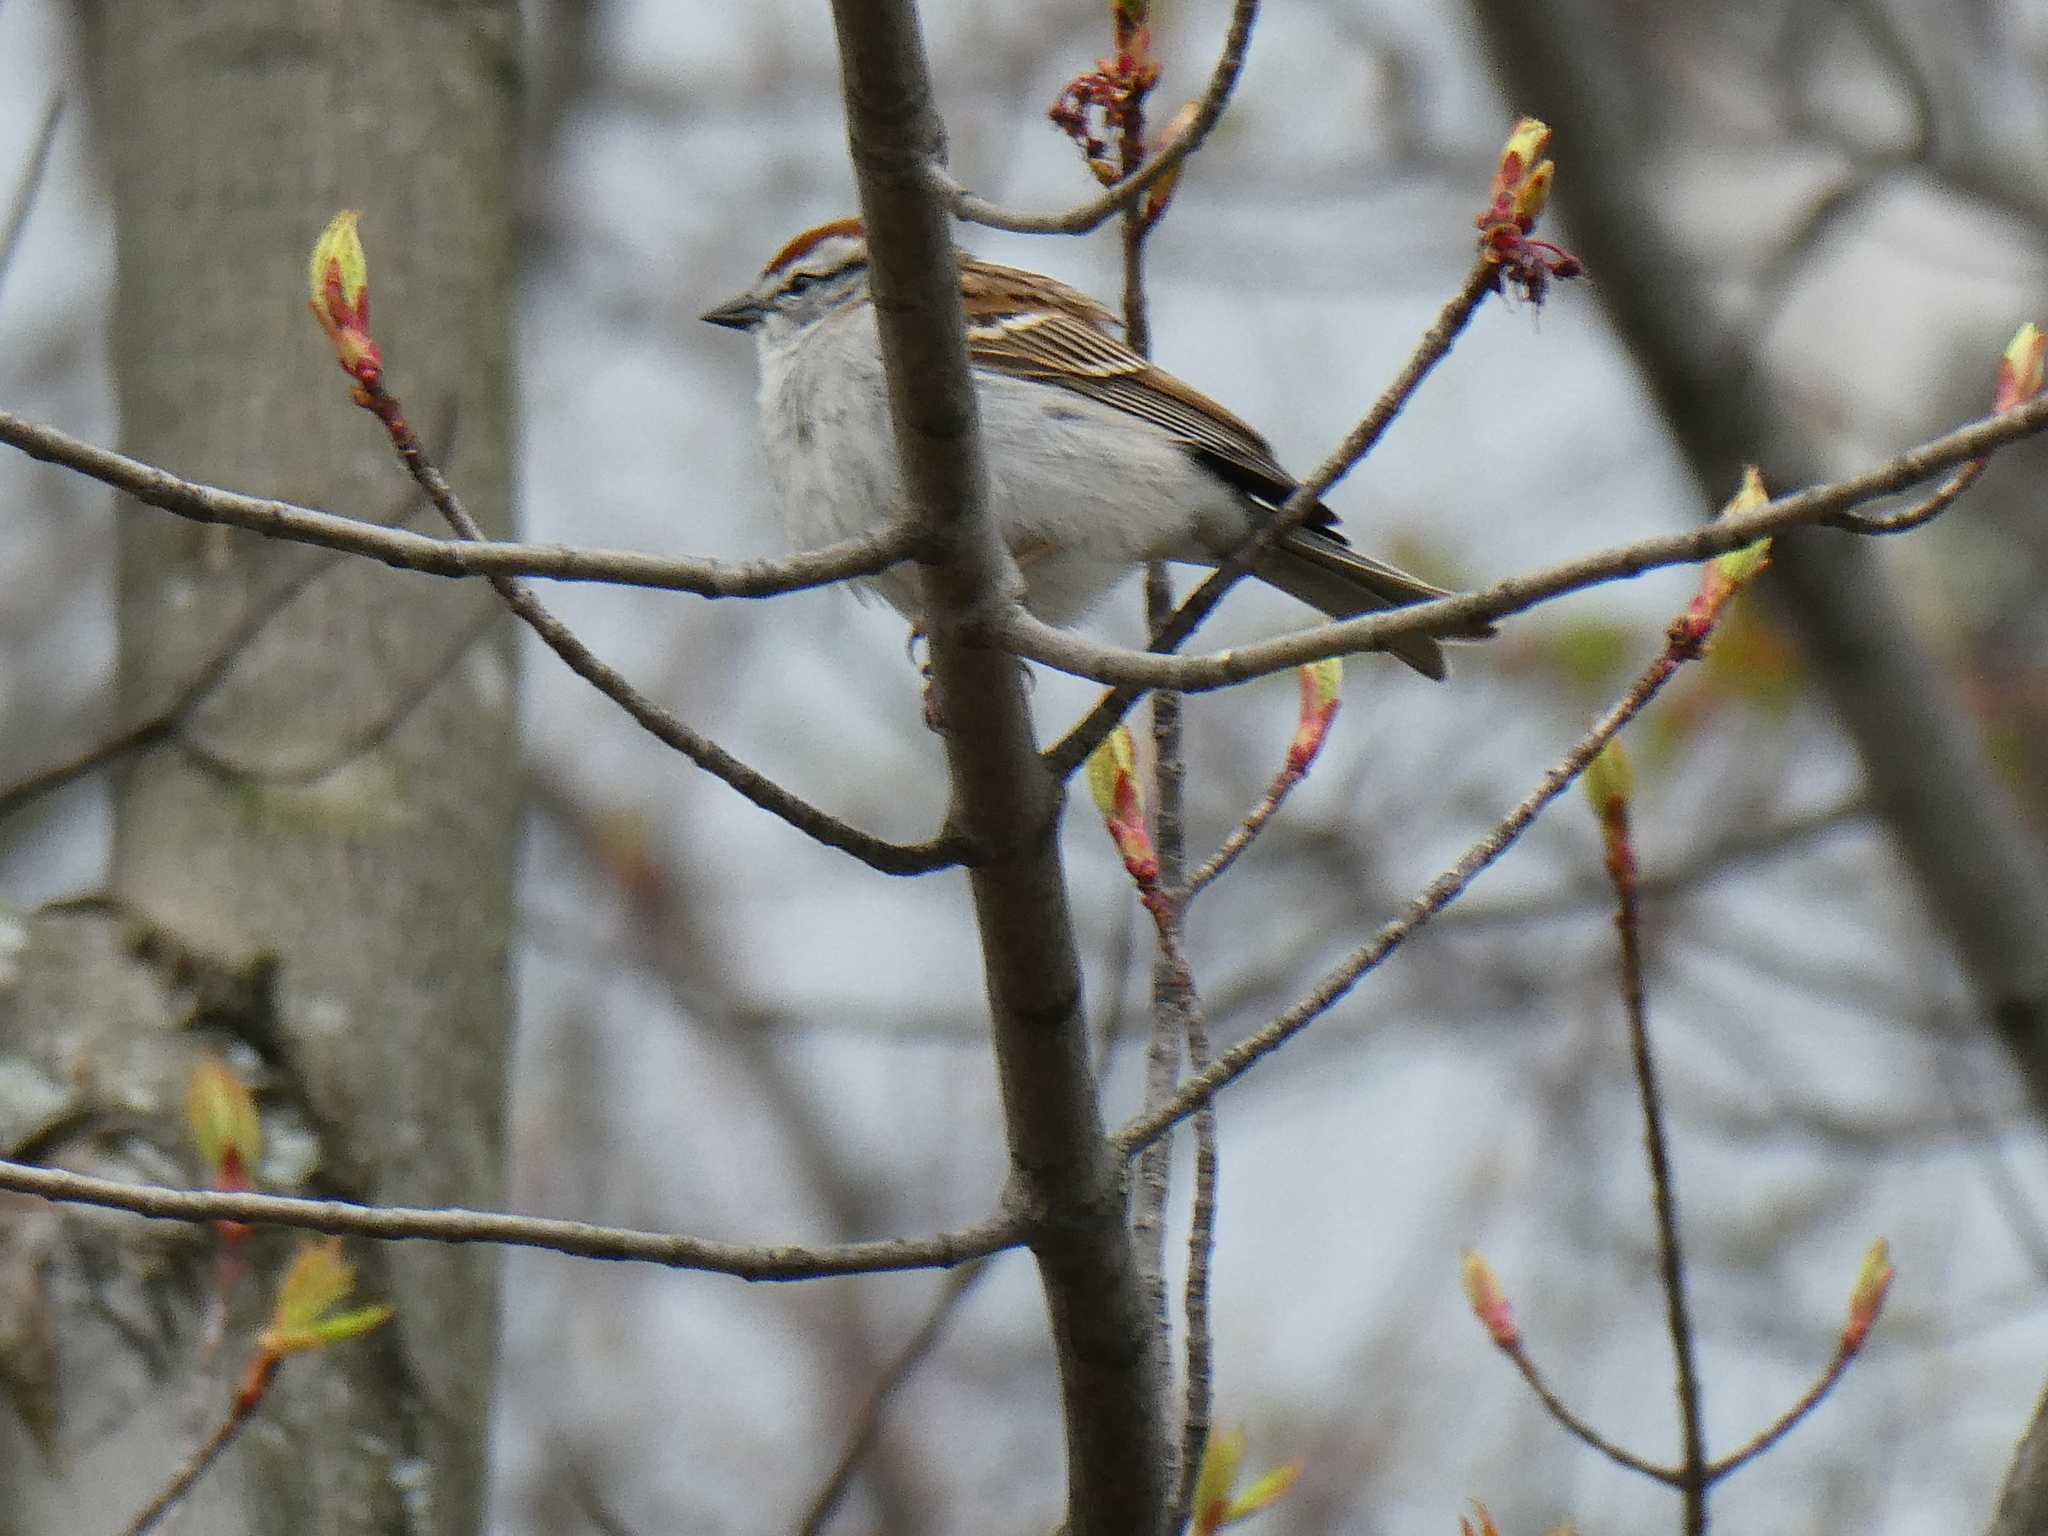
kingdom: Animalia
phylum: Chordata
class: Aves
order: Passeriformes
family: Passerellidae
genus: Spizella
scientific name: Spizella passerina
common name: Chipping sparrow
